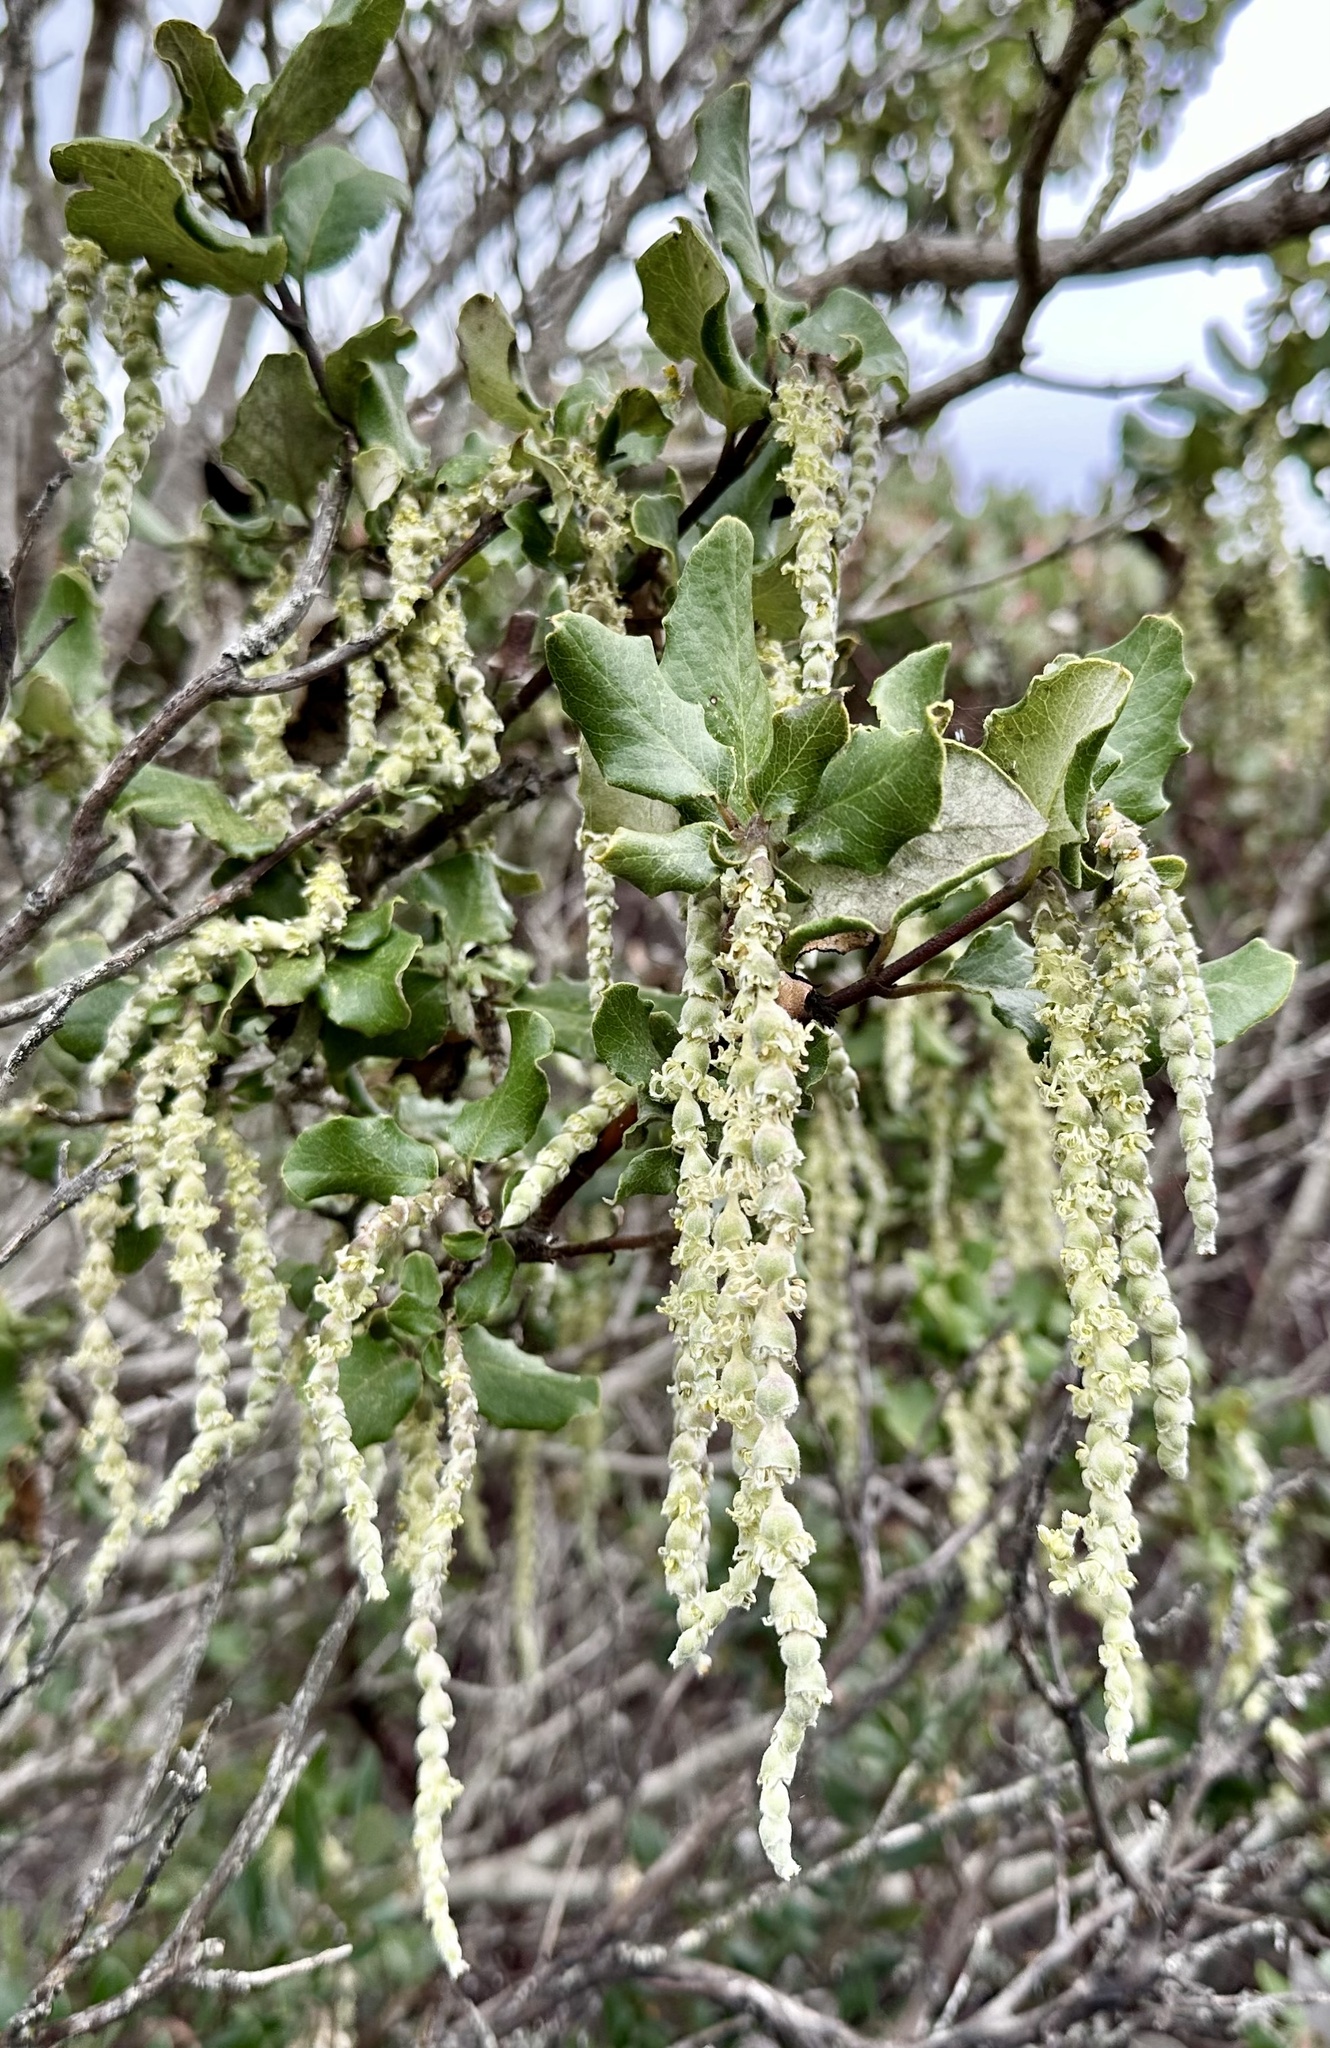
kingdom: Plantae
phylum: Tracheophyta
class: Magnoliopsida
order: Garryales
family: Garryaceae
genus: Garrya
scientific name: Garrya elliptica
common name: Silk-tassel
